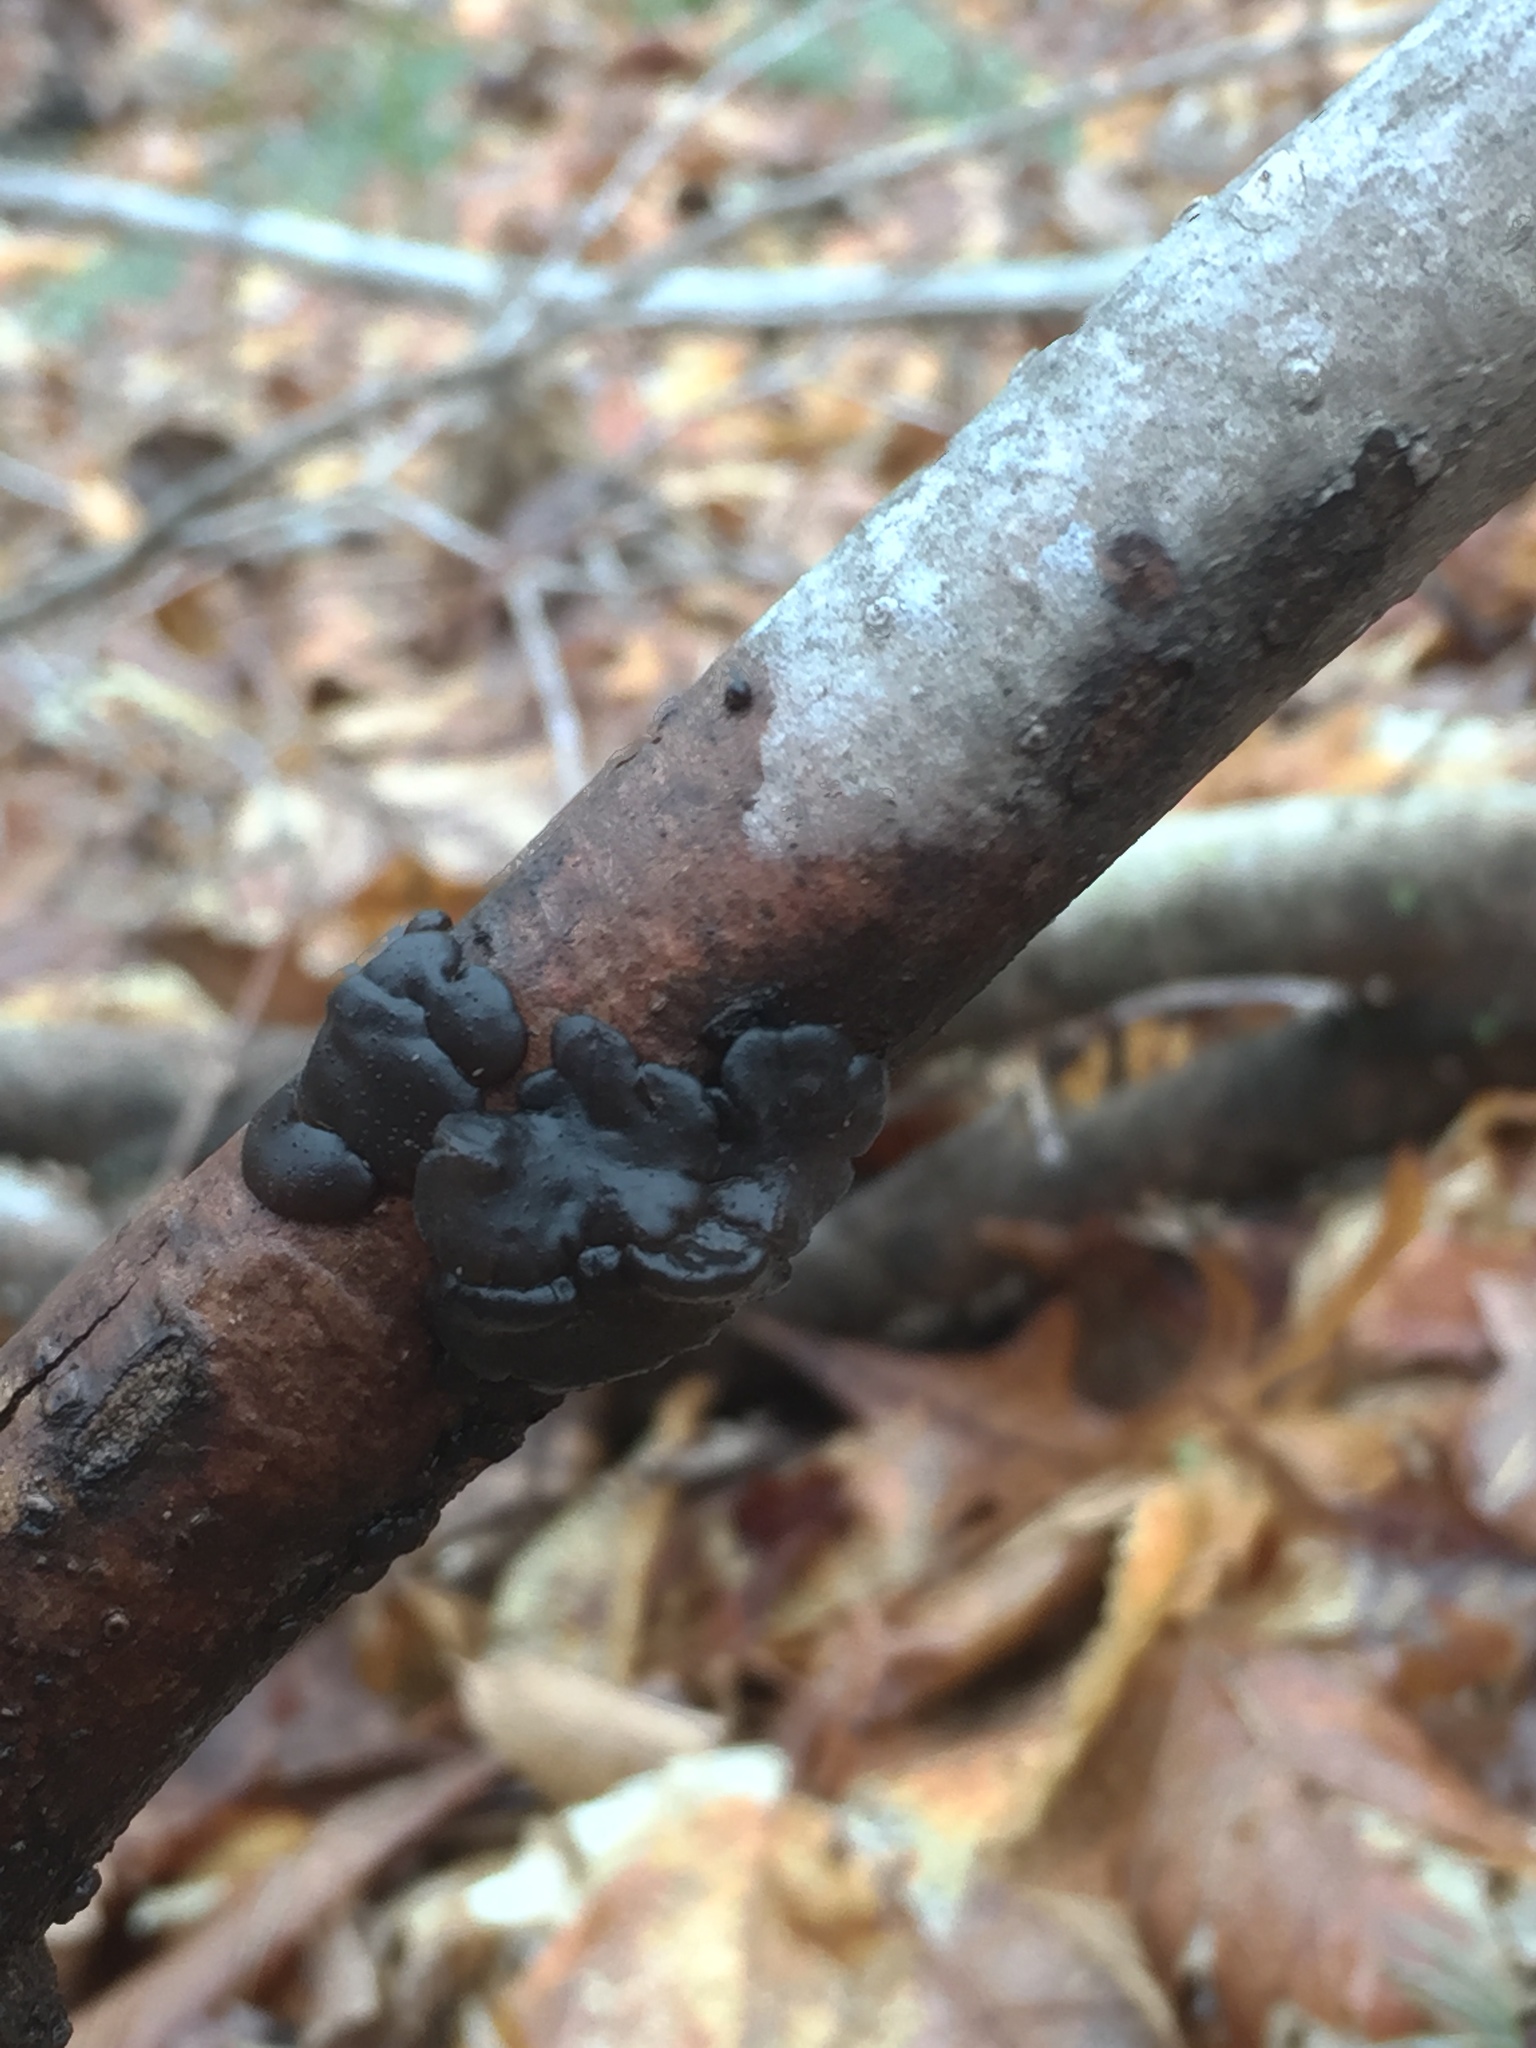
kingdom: Fungi
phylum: Basidiomycota
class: Agaricomycetes
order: Auriculariales
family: Auriculariaceae
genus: Exidia
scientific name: Exidia glandulosa
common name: Witches' butter
